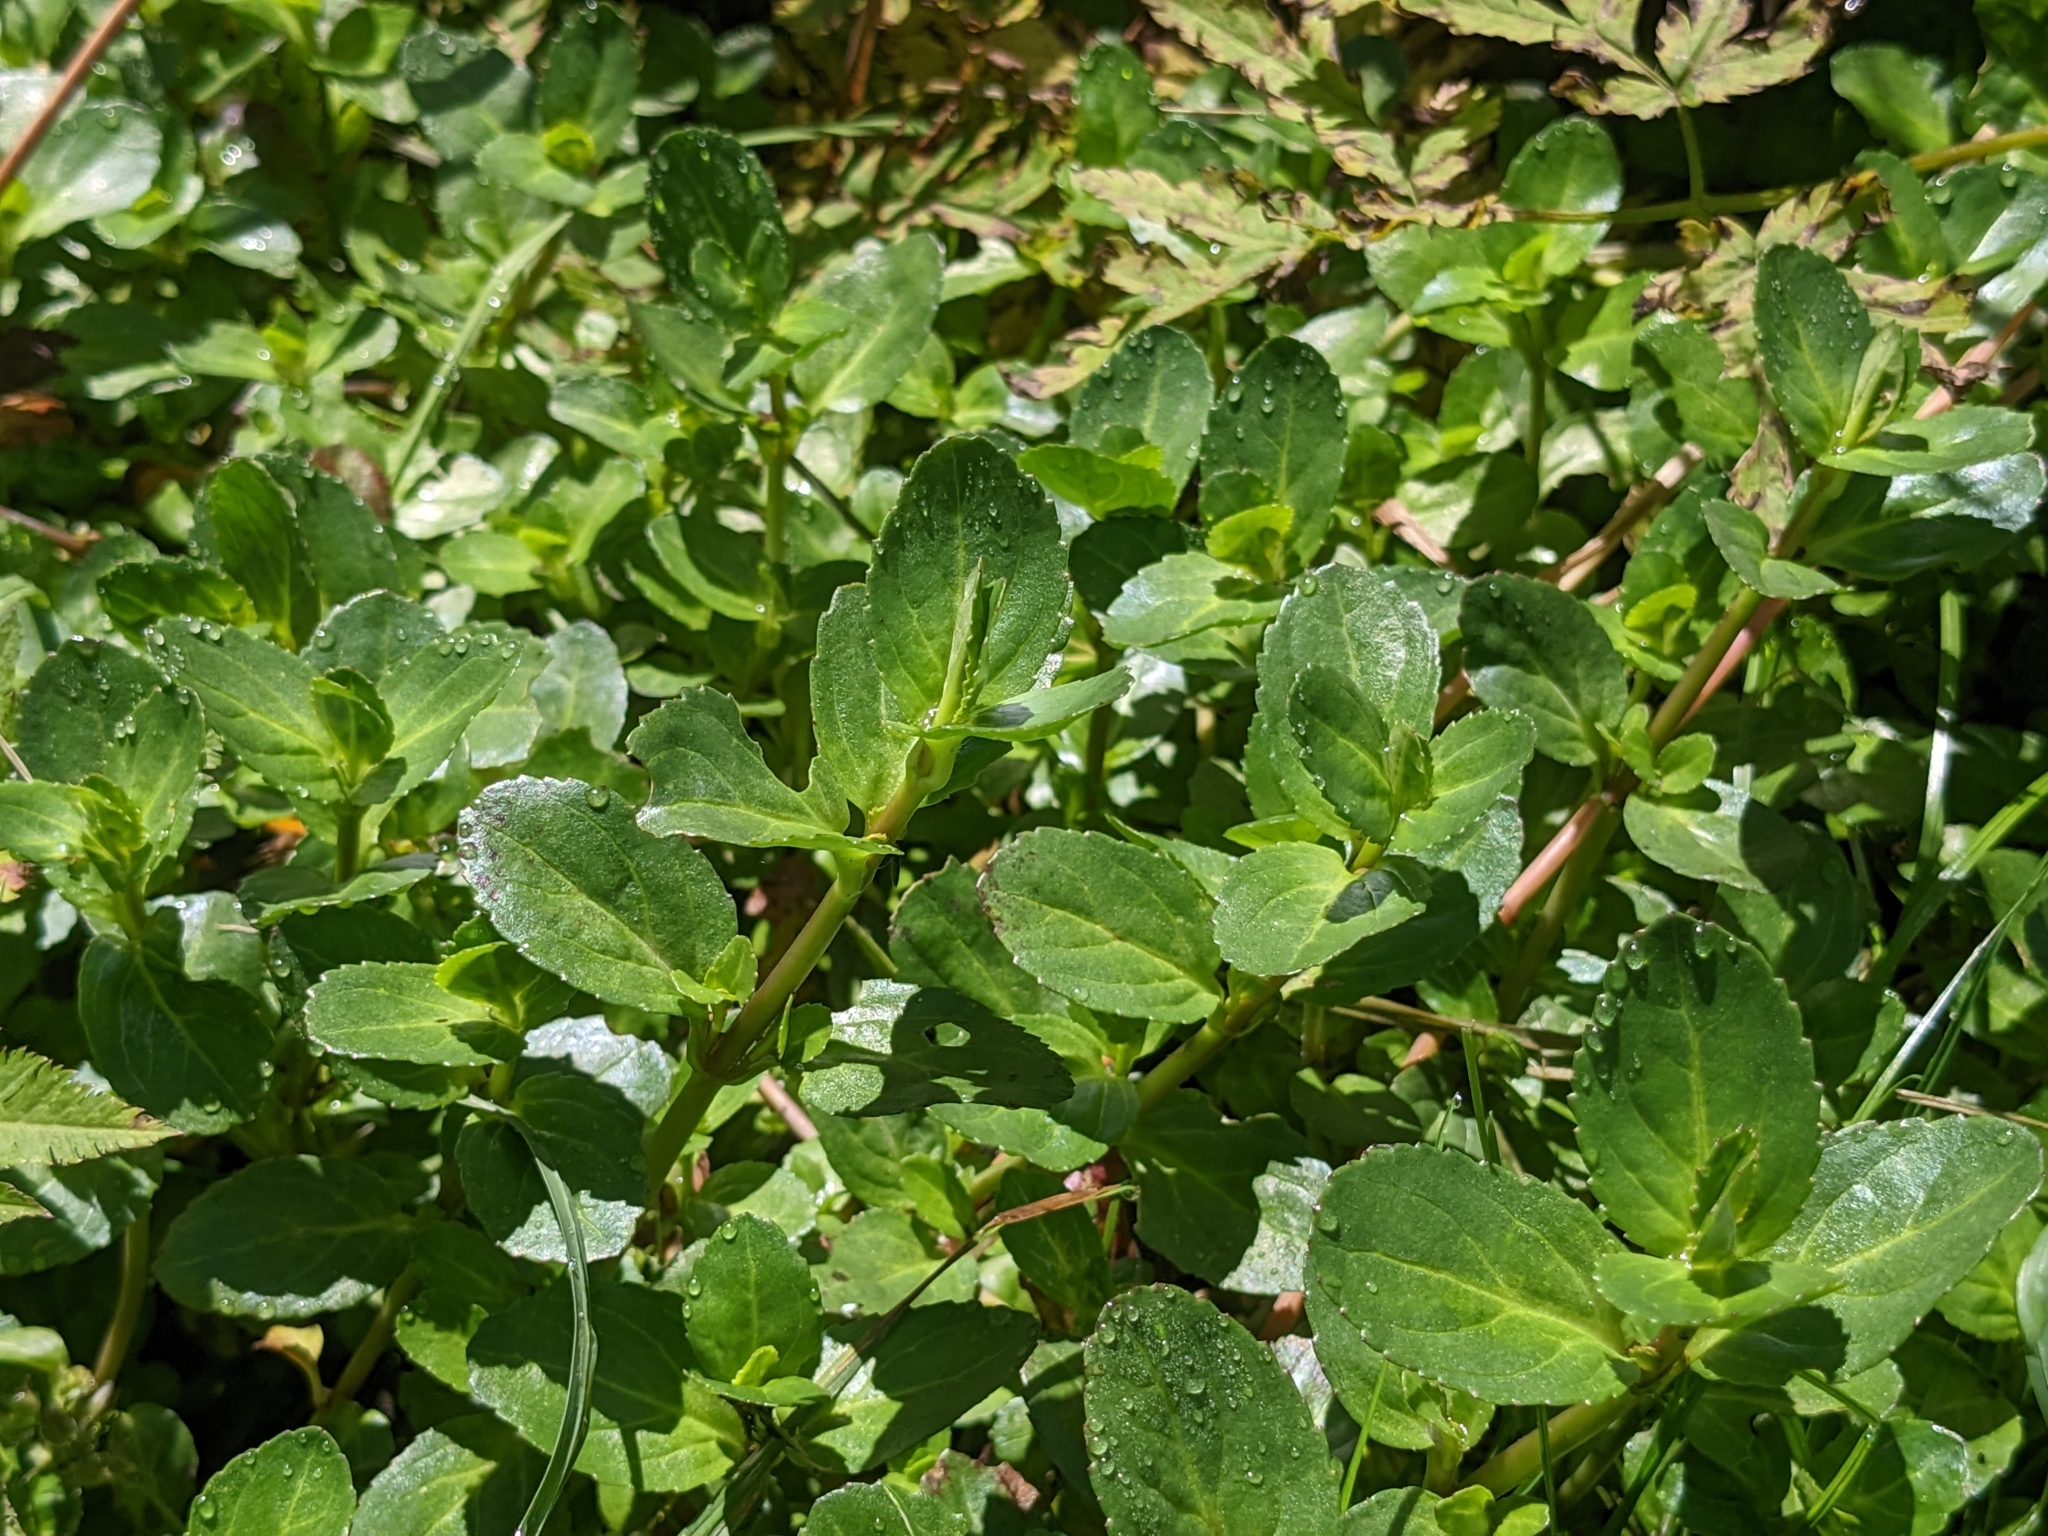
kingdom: Plantae
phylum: Tracheophyta
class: Magnoliopsida
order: Lamiales
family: Plantaginaceae
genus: Veronica
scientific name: Veronica beccabunga
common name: Brooklime
